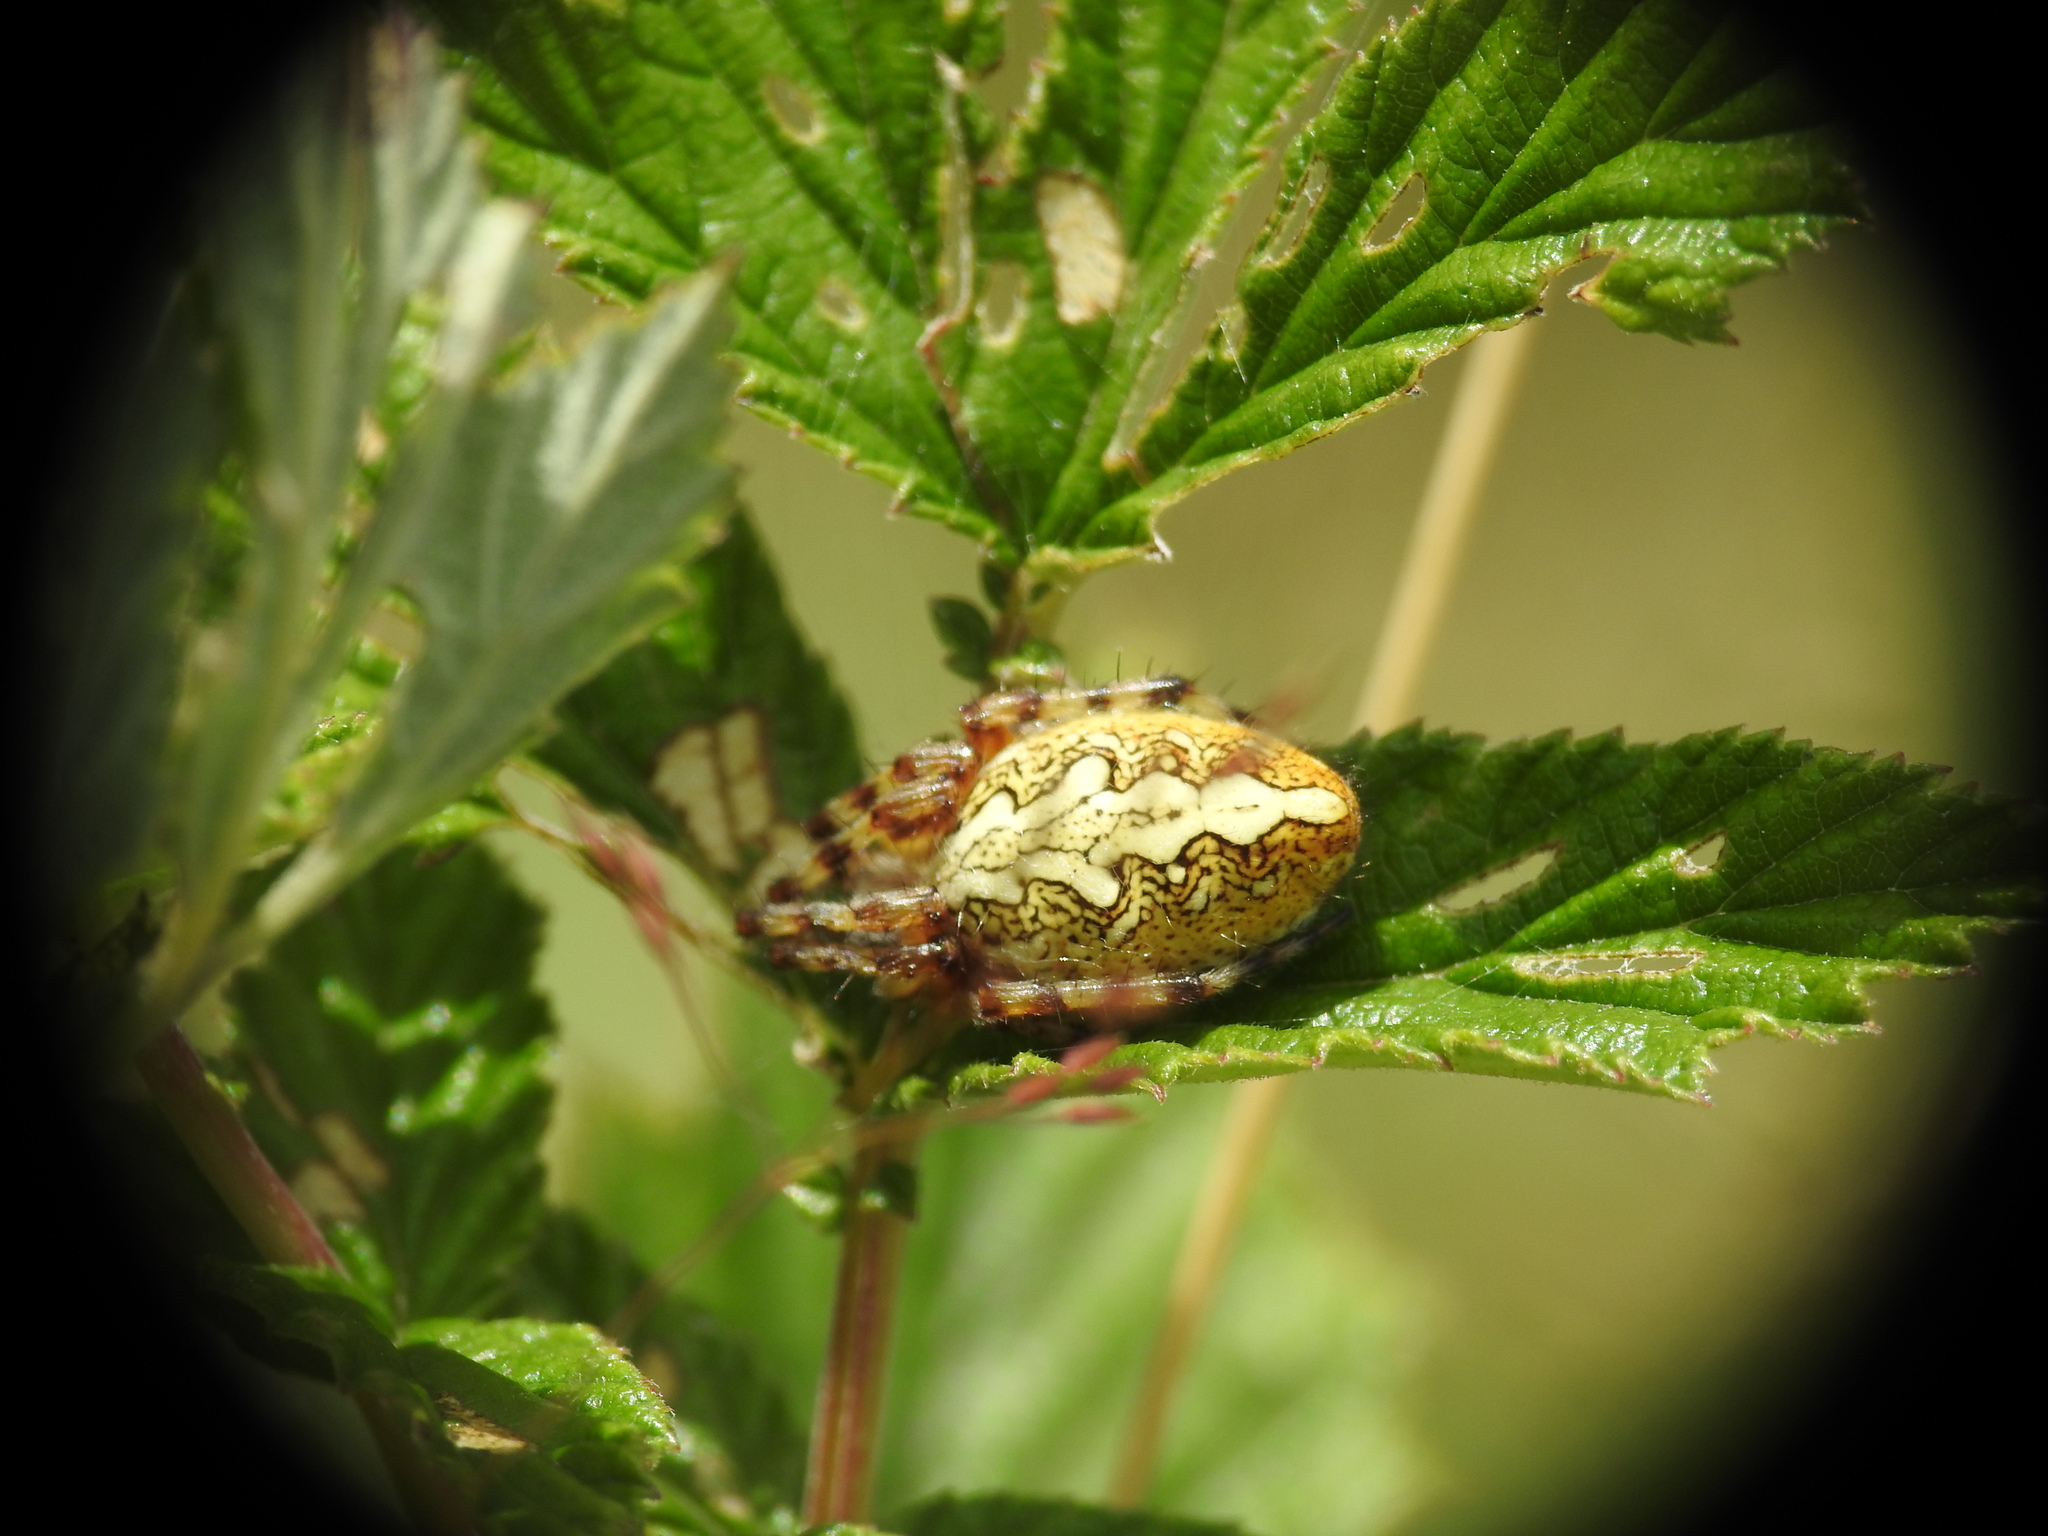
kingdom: Animalia
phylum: Arthropoda
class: Arachnida
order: Araneae
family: Araneidae
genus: Aculepeira
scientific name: Aculepeira ceropegia
